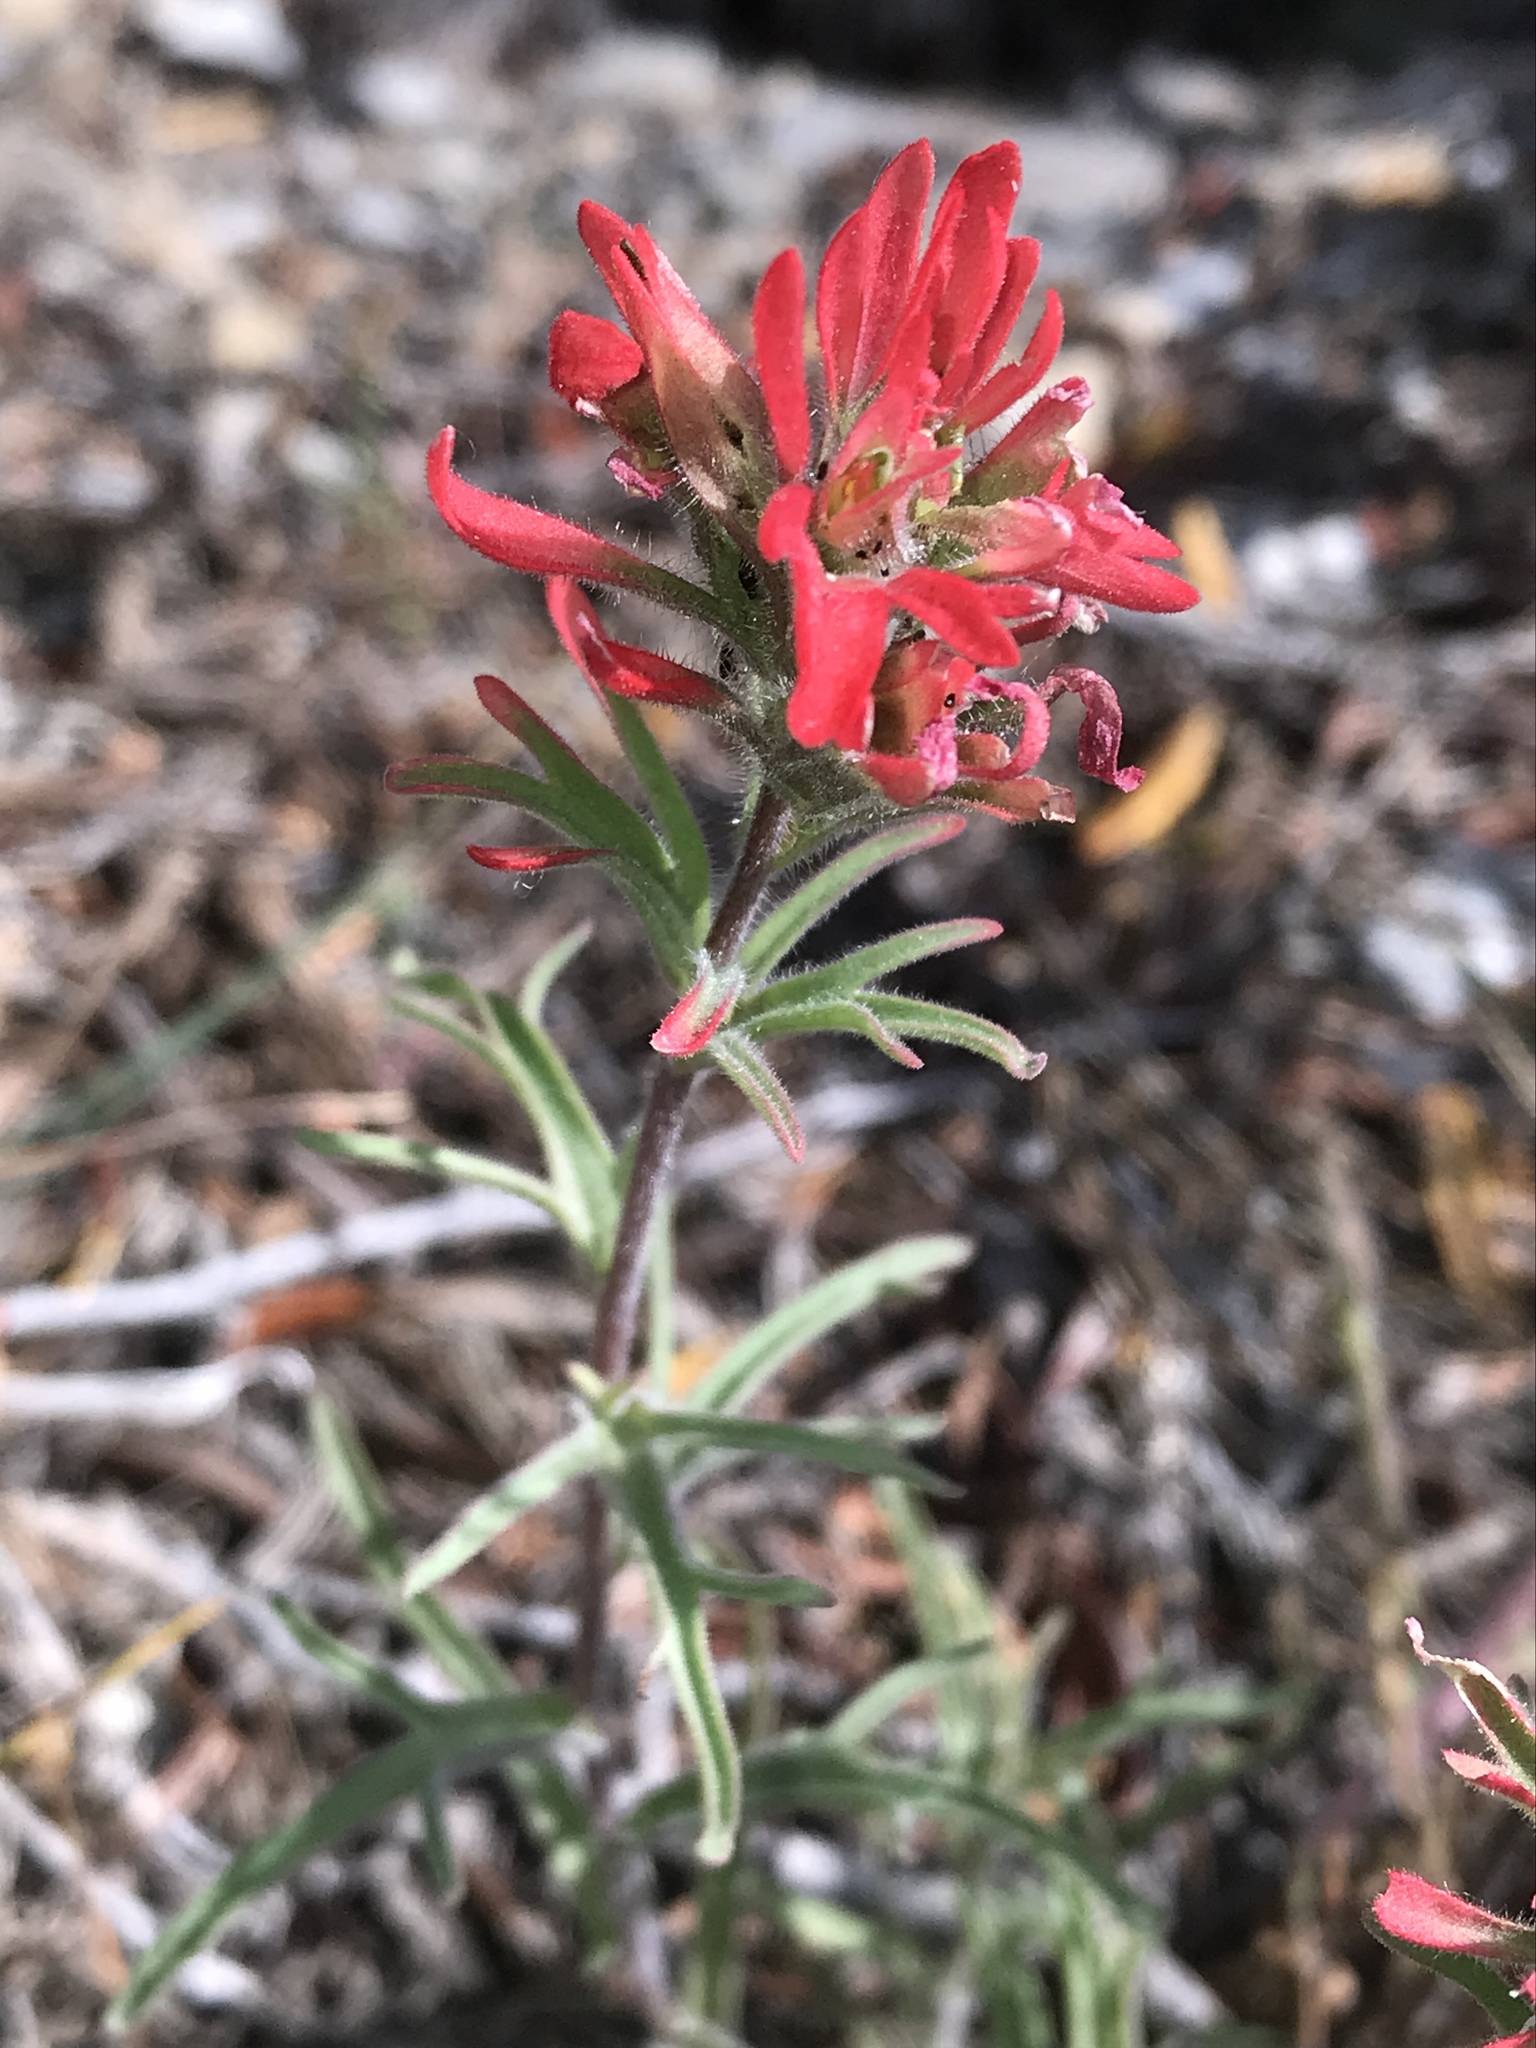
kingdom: Plantae
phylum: Tracheophyta
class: Magnoliopsida
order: Lamiales
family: Orobanchaceae
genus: Castilleja
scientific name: Castilleja chromosa
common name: Desert paintbrush
